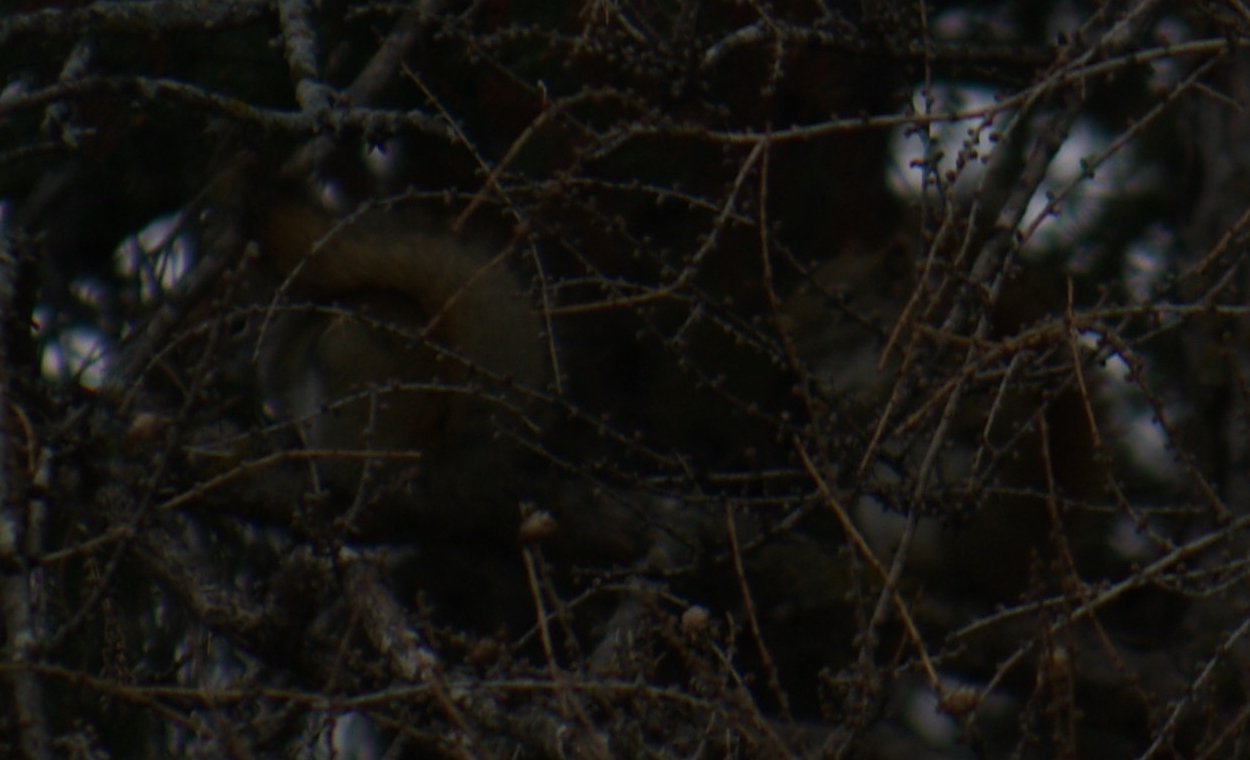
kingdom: Animalia
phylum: Chordata
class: Mammalia
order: Rodentia
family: Sciuridae
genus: Tamiasciurus
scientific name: Tamiasciurus hudsonicus
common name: Red squirrel
